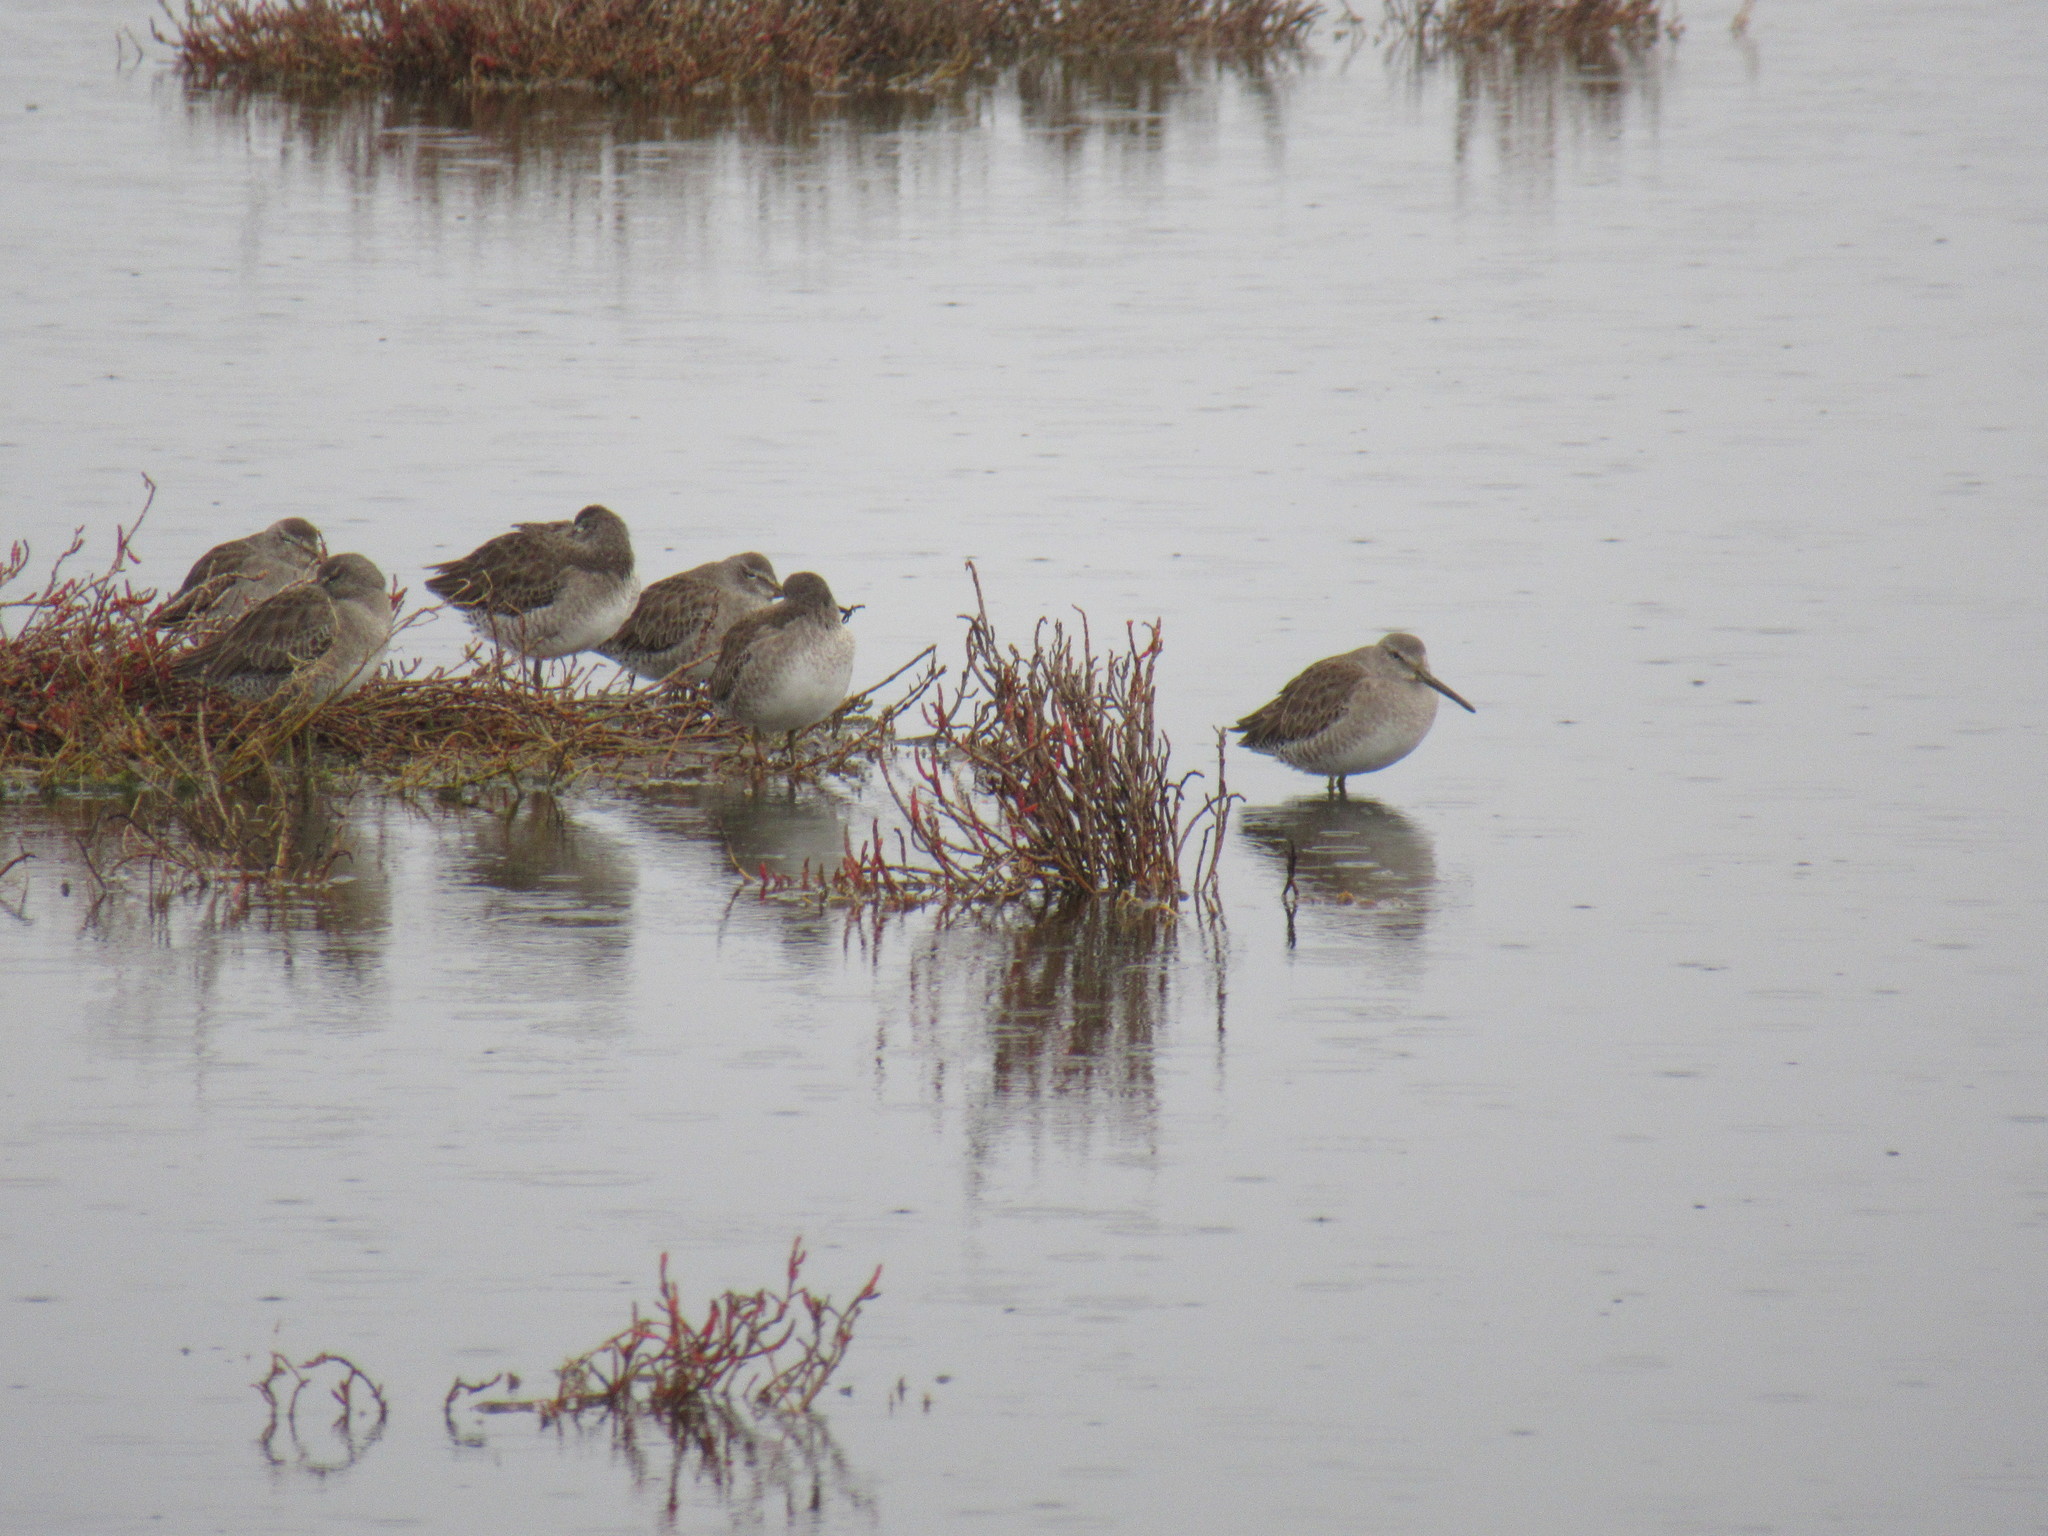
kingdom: Animalia
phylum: Chordata
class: Aves
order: Charadriiformes
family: Scolopacidae
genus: Limnodromus
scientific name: Limnodromus
